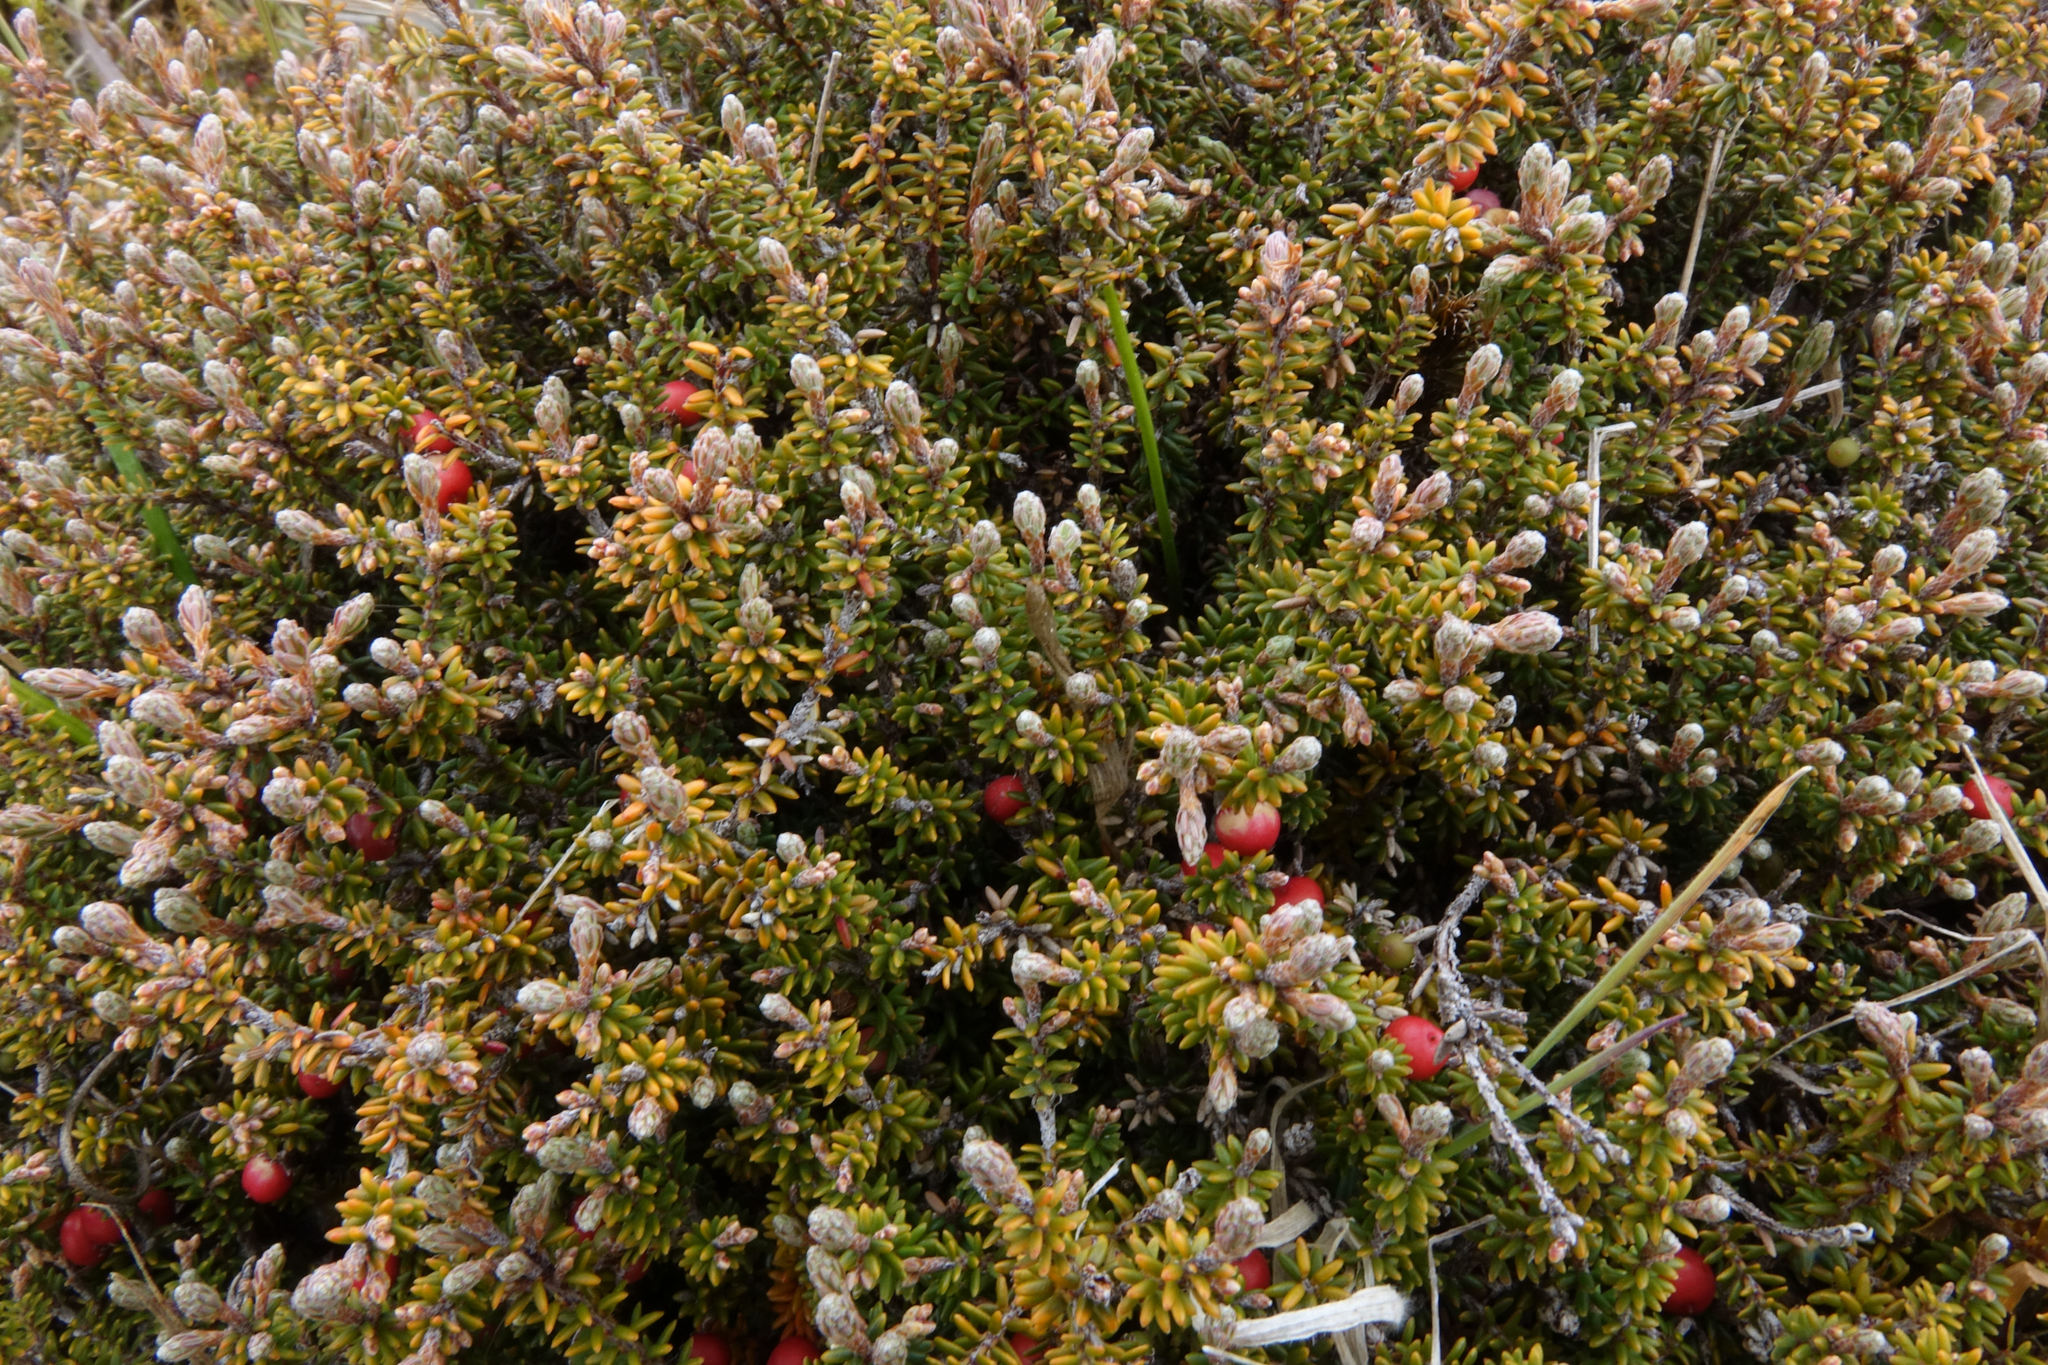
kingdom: Plantae
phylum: Tracheophyta
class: Magnoliopsida
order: Ericales
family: Ericaceae
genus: Androstoma
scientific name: Androstoma empetrifolia
